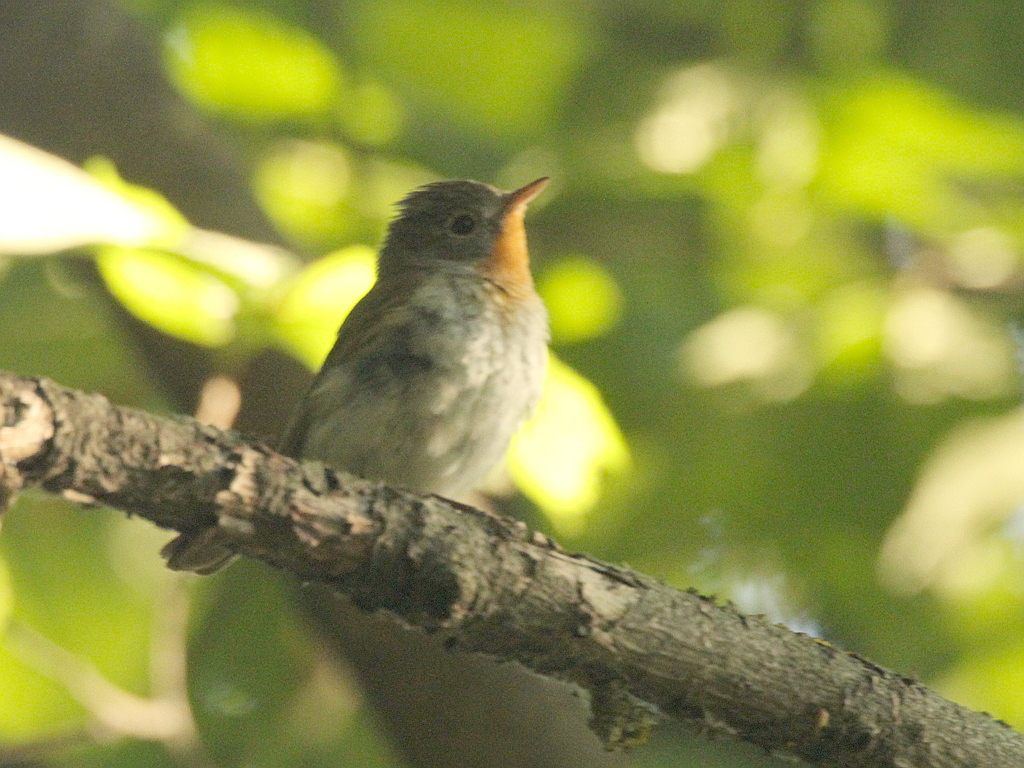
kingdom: Animalia
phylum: Chordata
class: Aves
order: Passeriformes
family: Muscicapidae
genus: Ficedula
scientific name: Ficedula parva
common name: Red-breasted flycatcher
